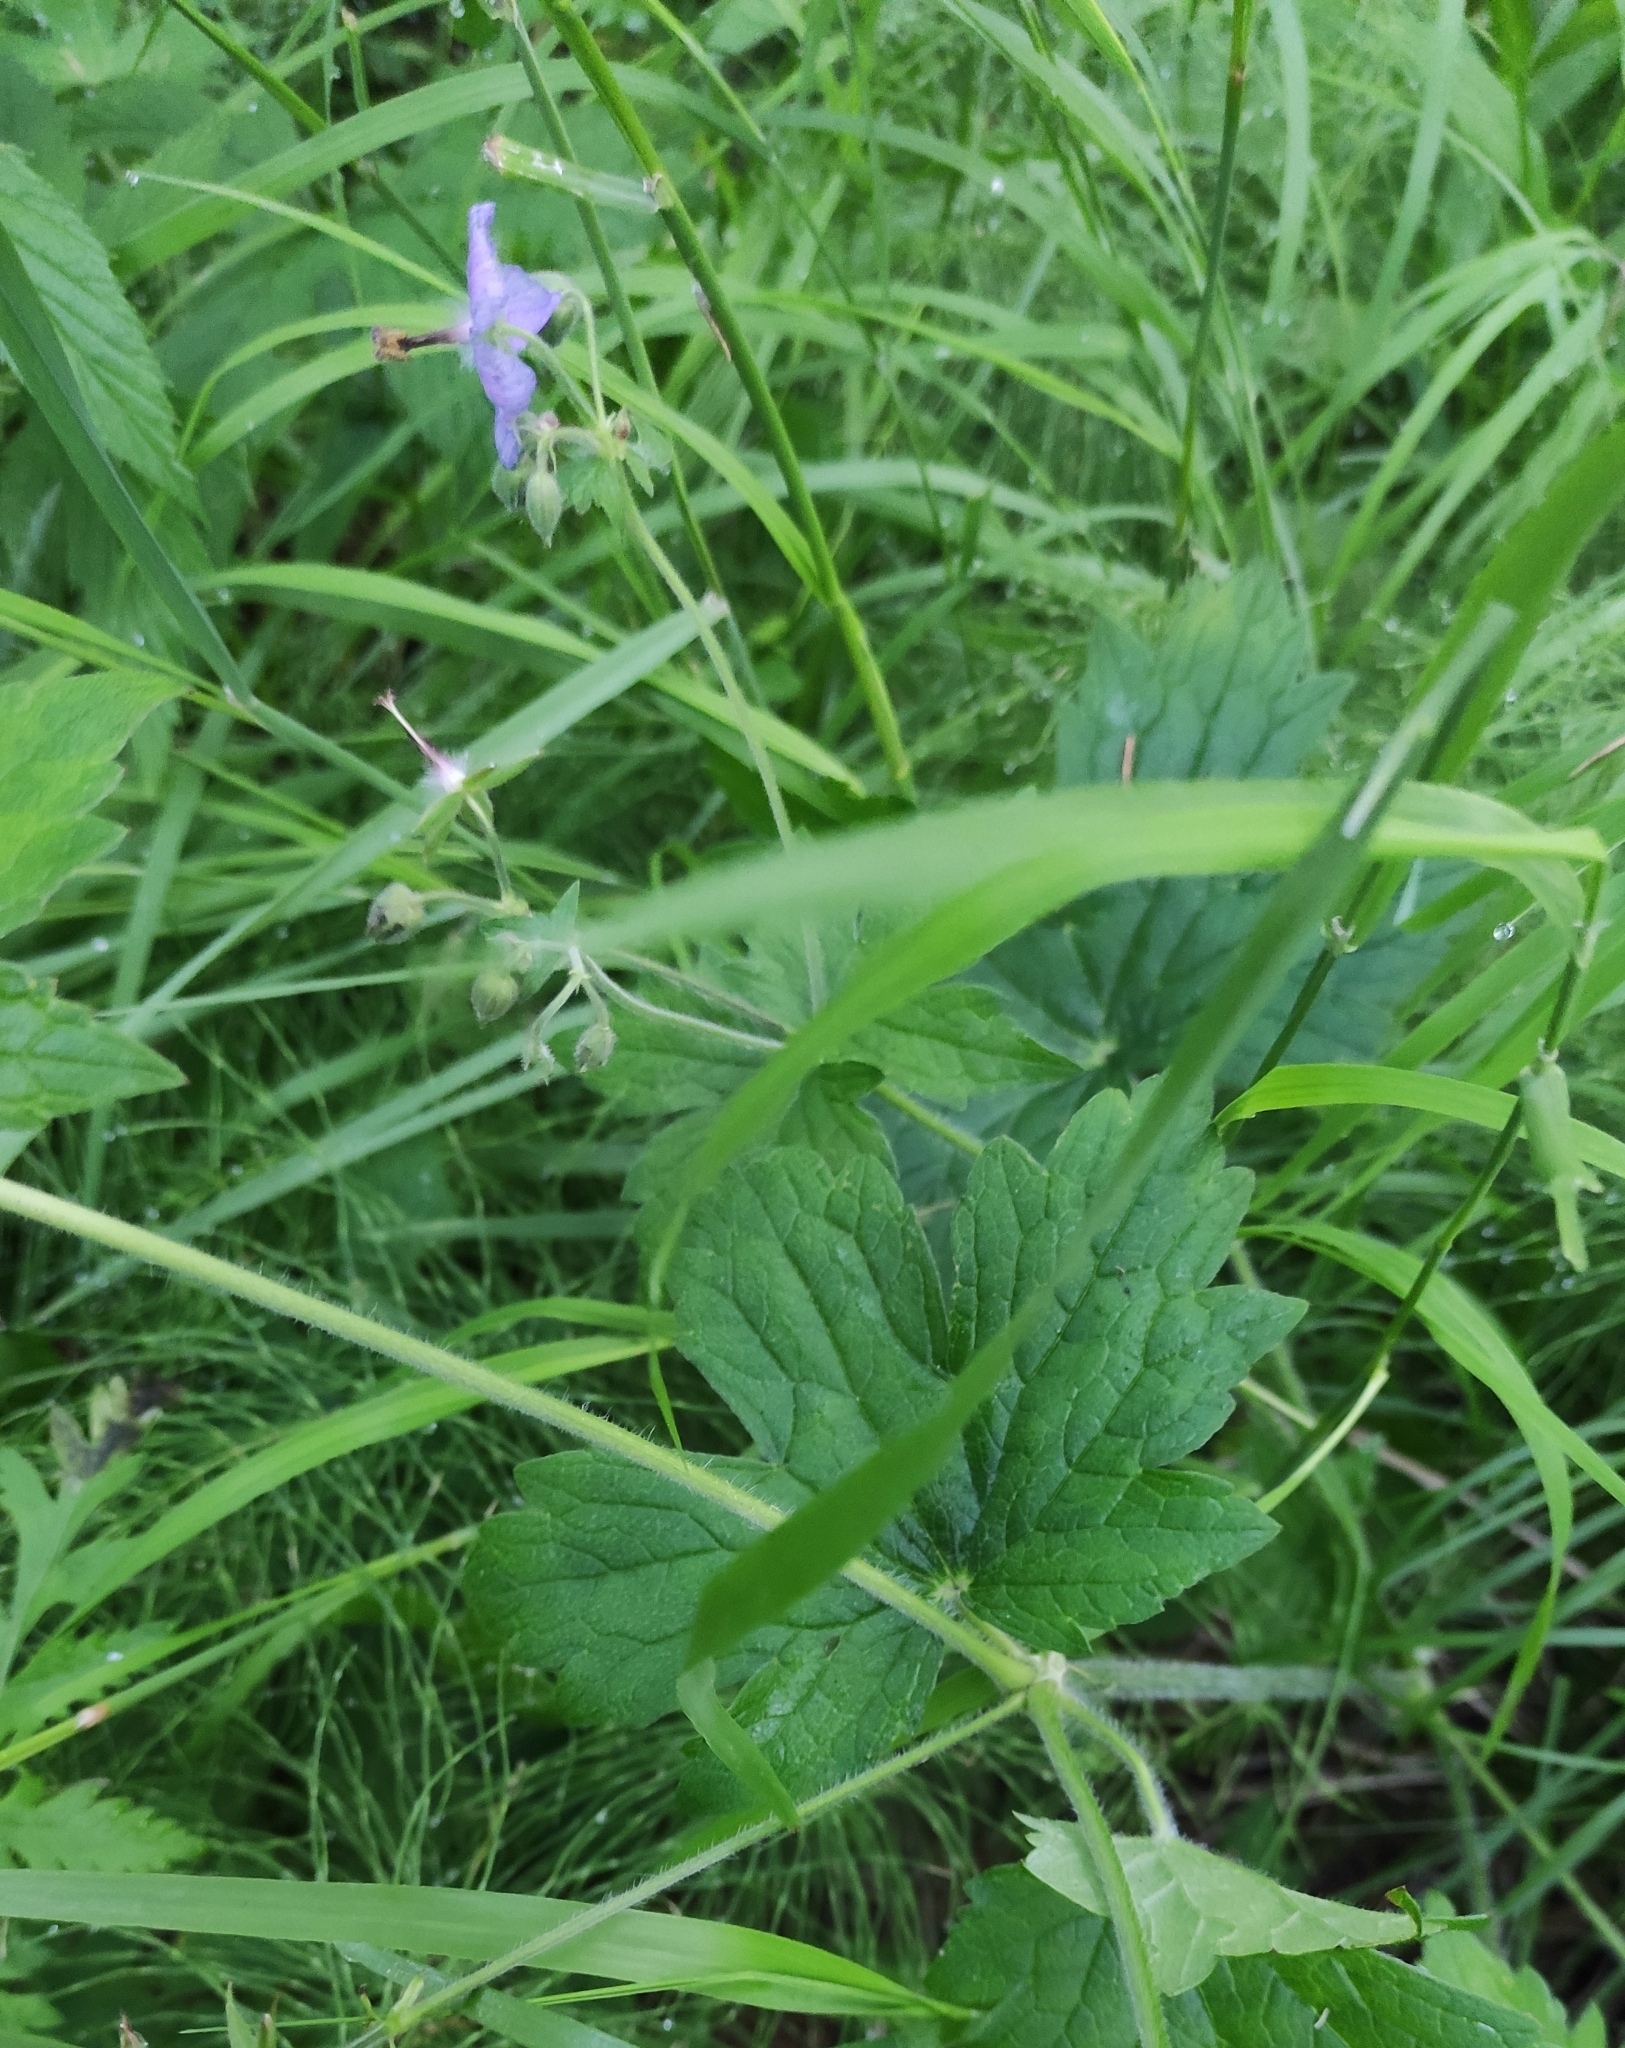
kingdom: Plantae
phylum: Tracheophyta
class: Magnoliopsida
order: Geraniales
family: Geraniaceae
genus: Geranium
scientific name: Geranium platyanthum
